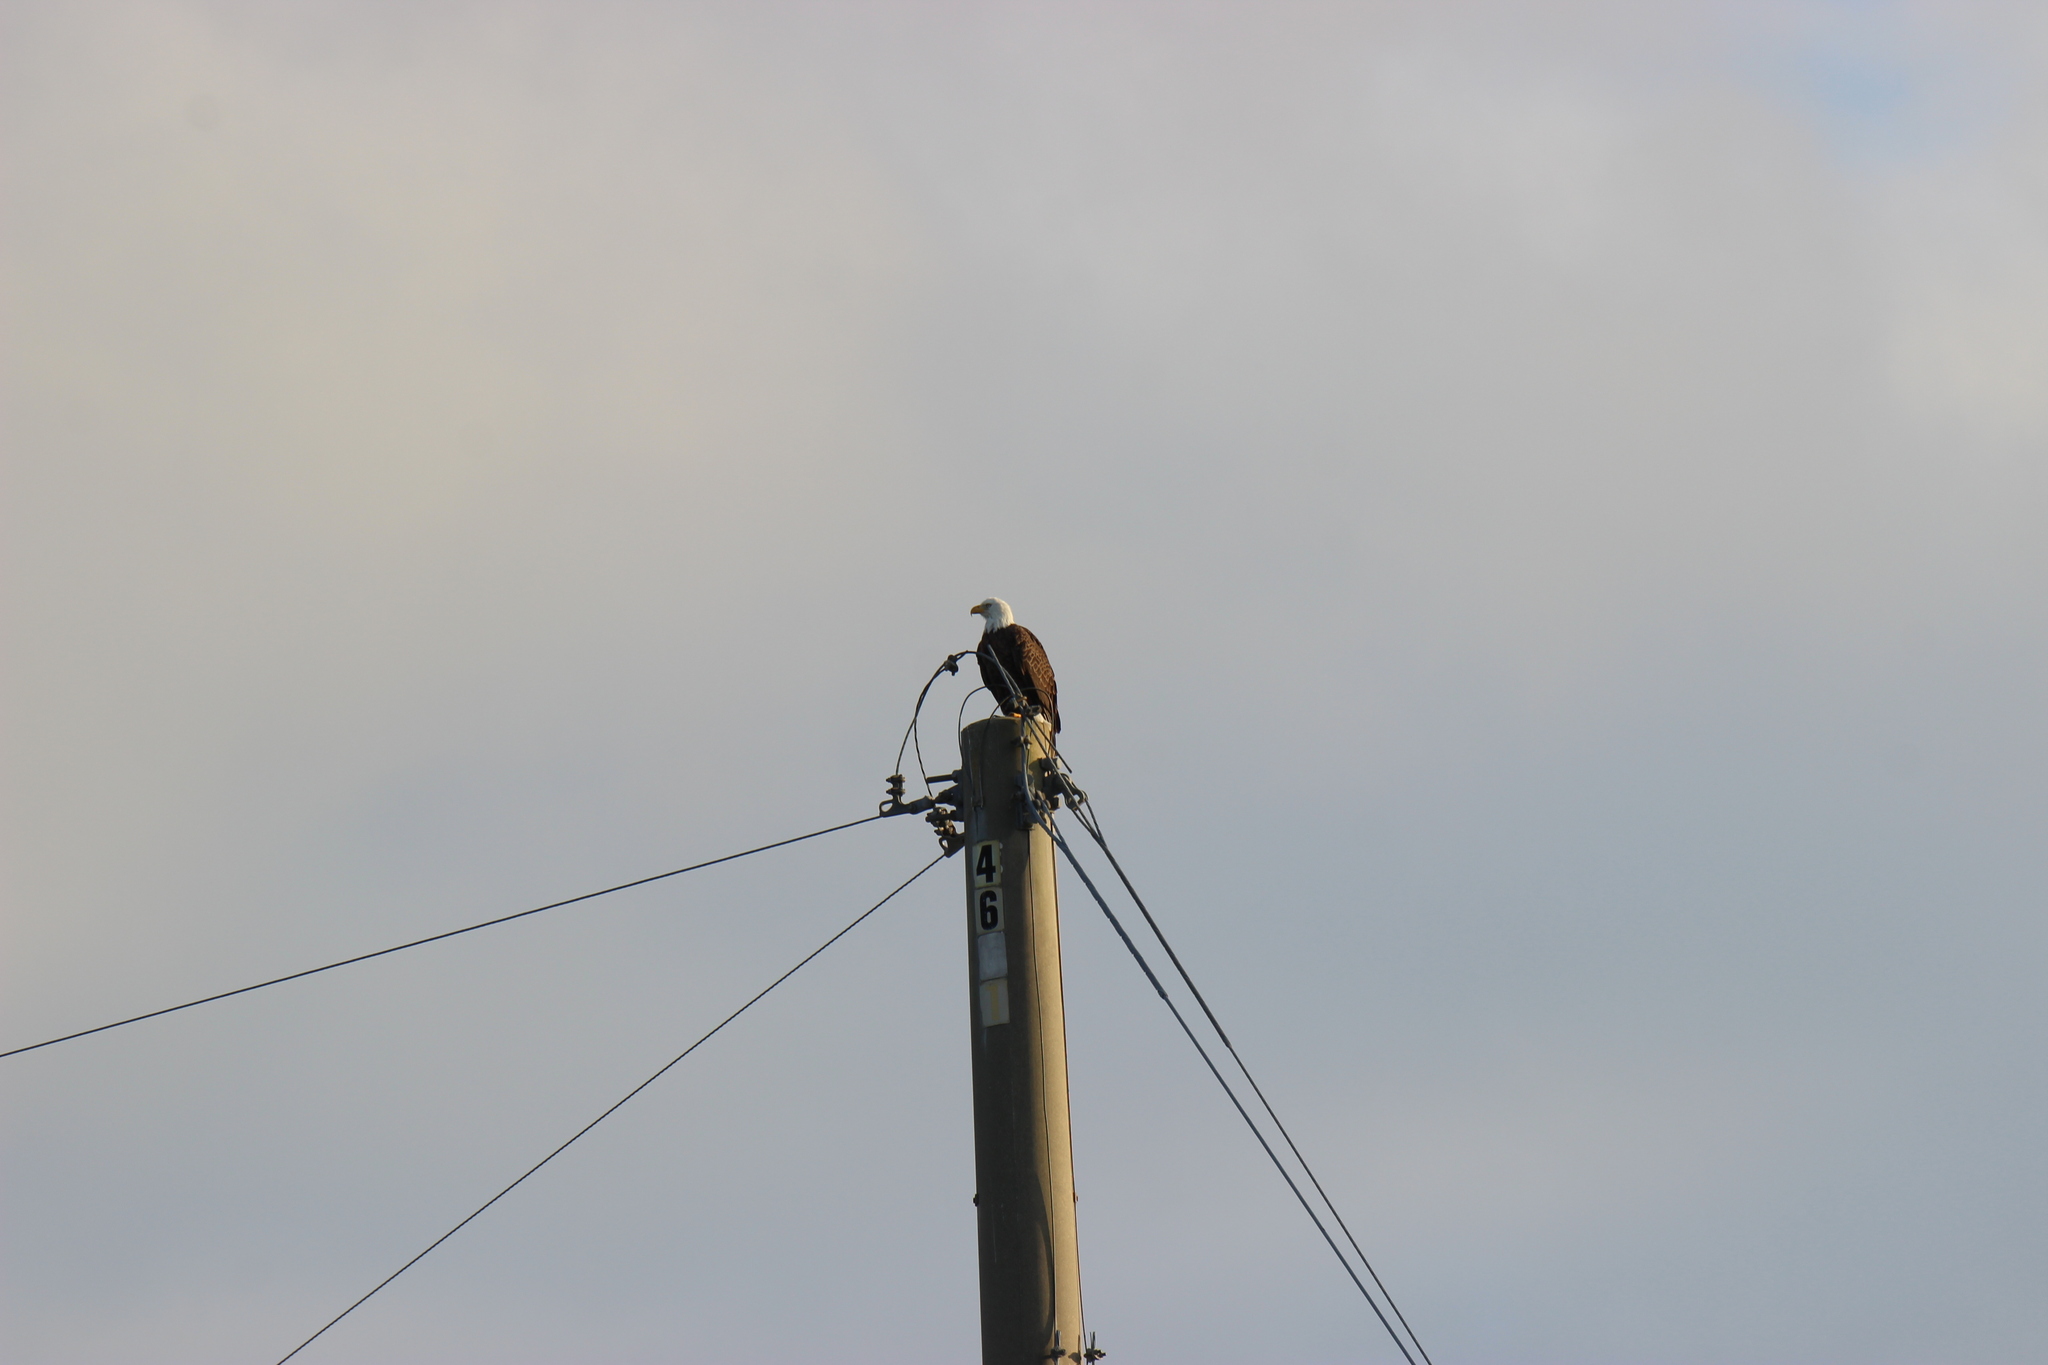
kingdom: Animalia
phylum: Chordata
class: Aves
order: Accipitriformes
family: Accipitridae
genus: Haliaeetus
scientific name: Haliaeetus leucocephalus
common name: Bald eagle
